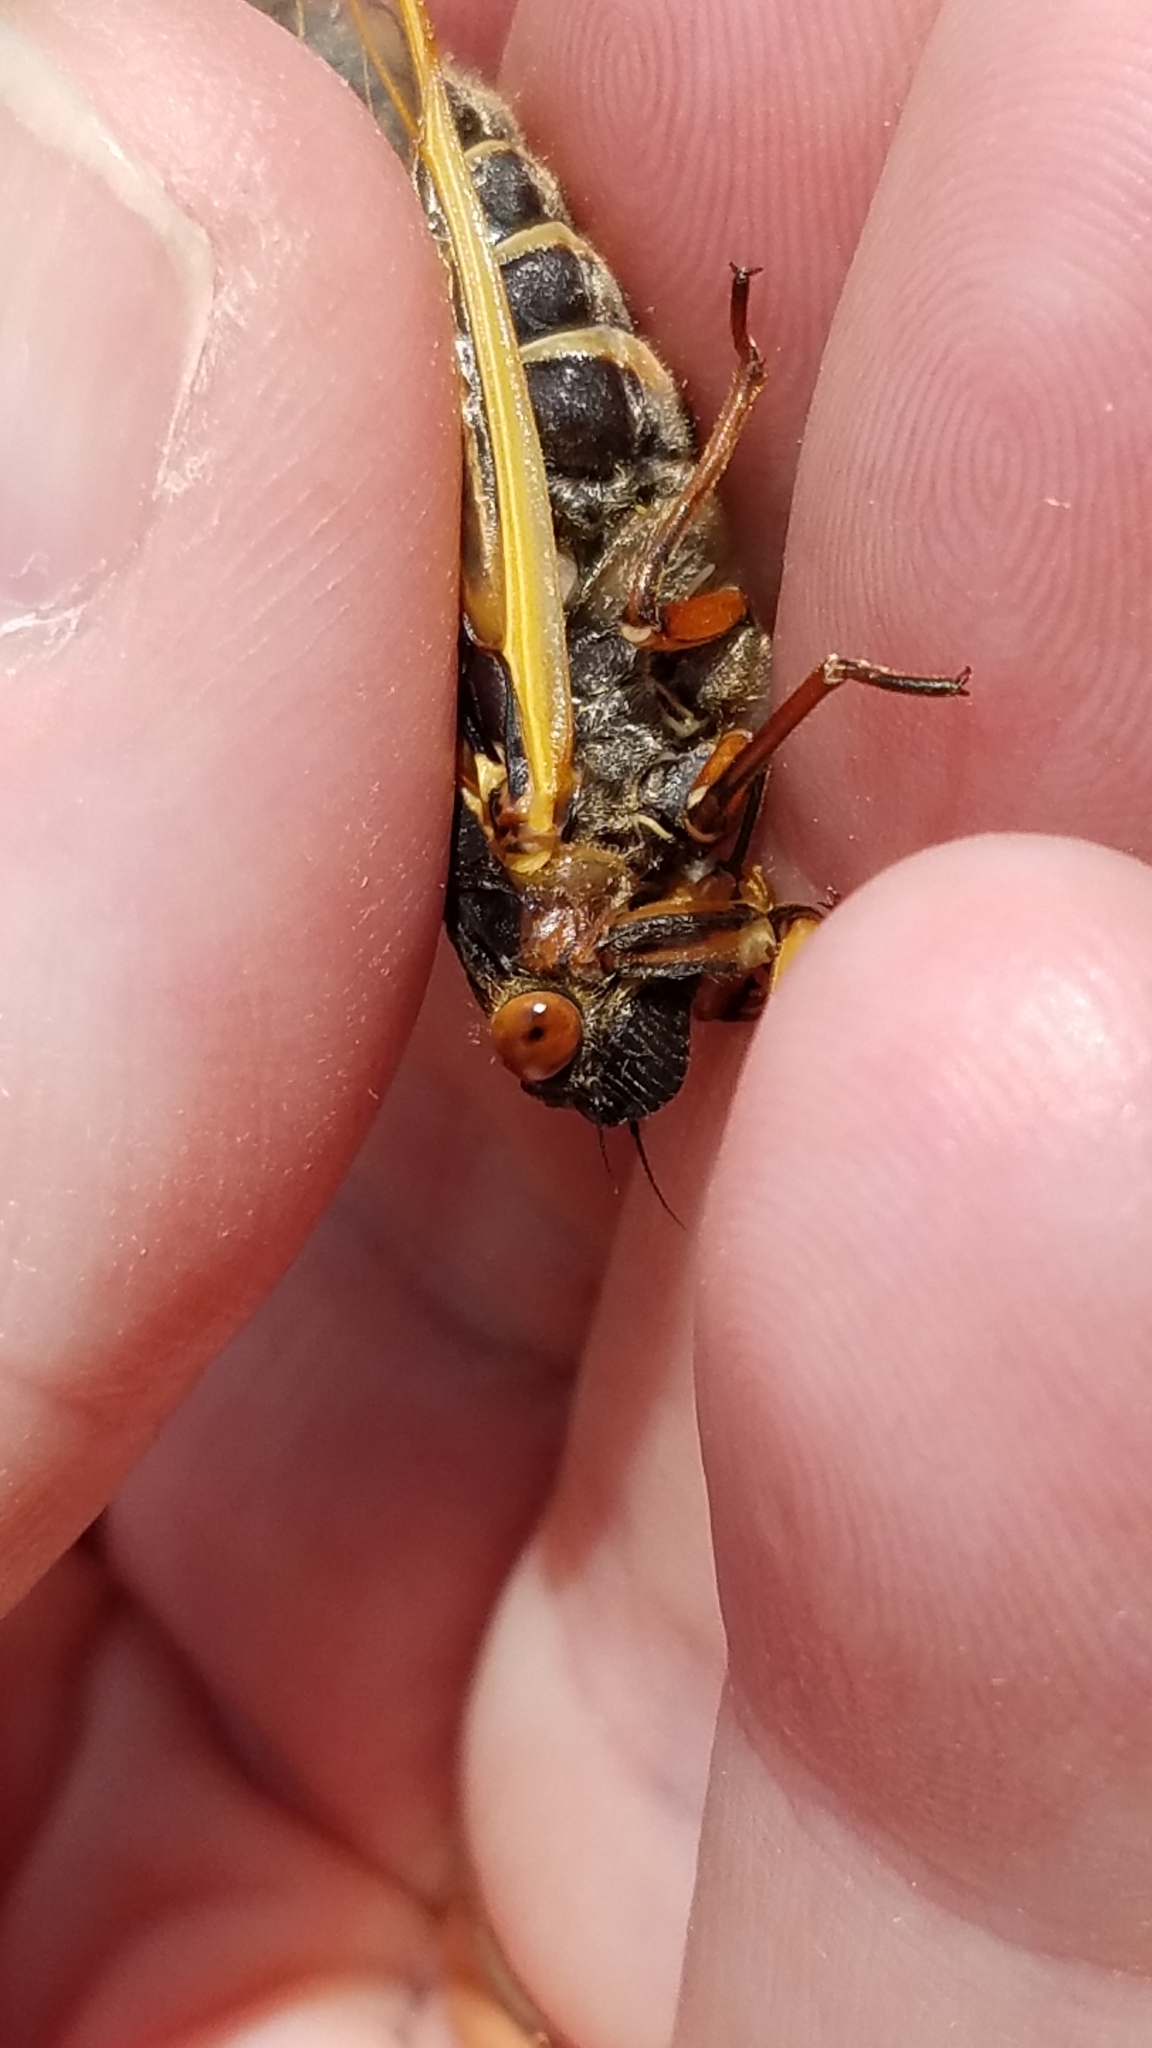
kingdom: Animalia
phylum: Arthropoda
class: Insecta
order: Hemiptera
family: Cicadidae
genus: Magicicada
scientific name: Magicicada septendecim
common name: Periodical cicada
